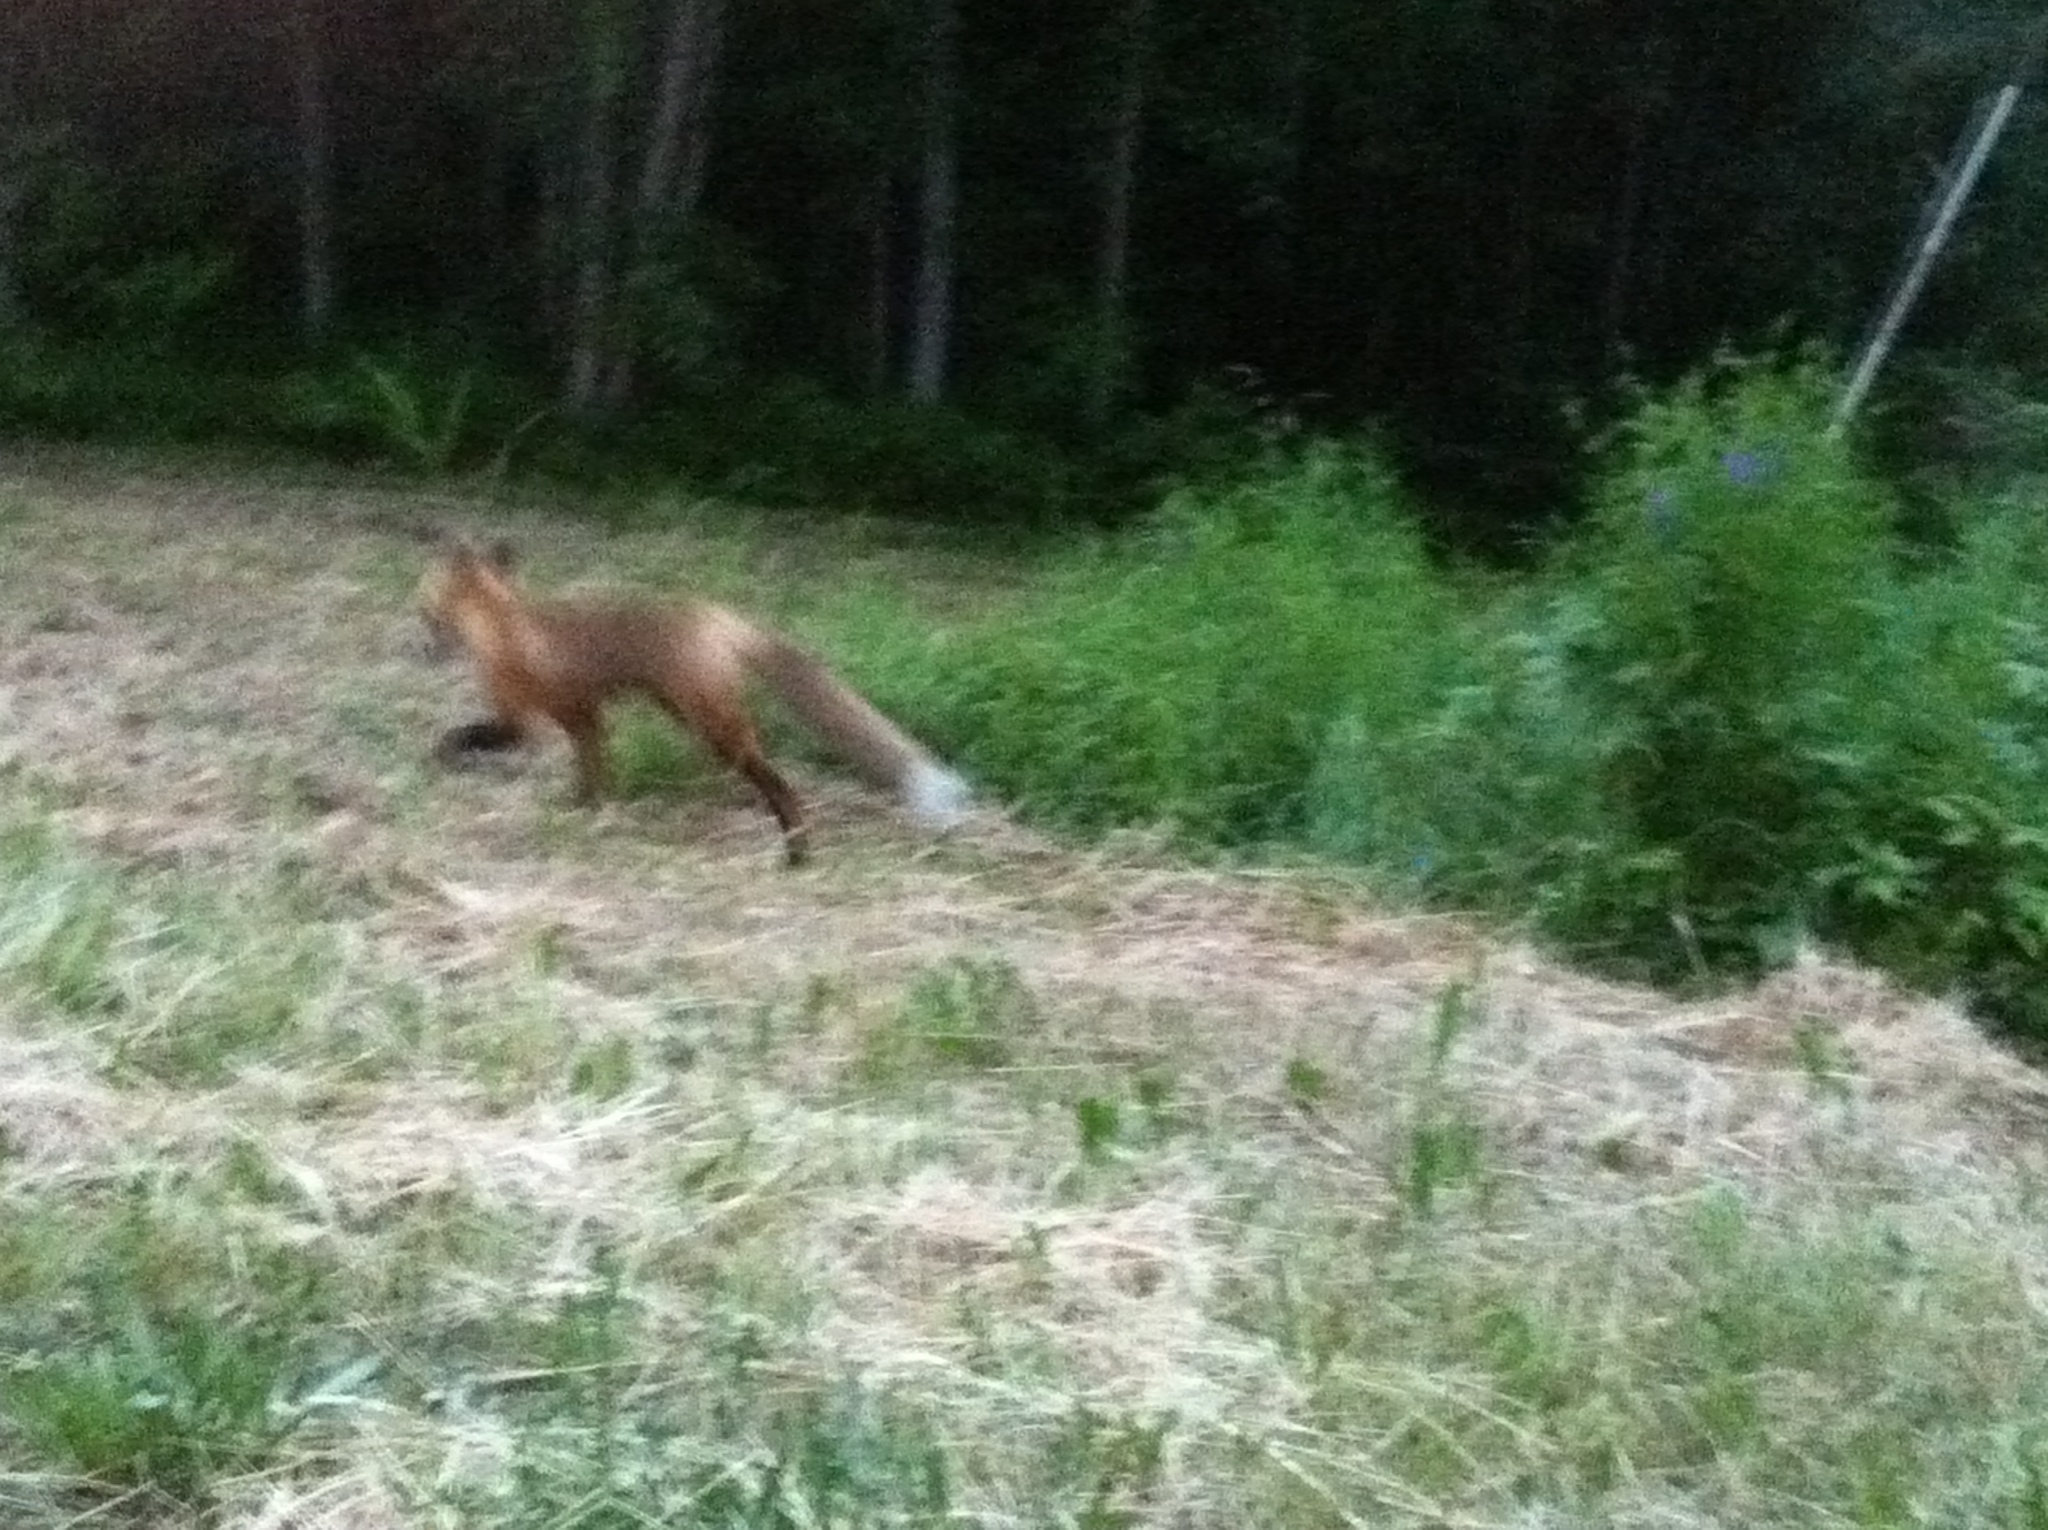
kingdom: Animalia
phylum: Chordata
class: Mammalia
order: Carnivora
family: Canidae
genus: Vulpes
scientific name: Vulpes vulpes
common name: Red fox
